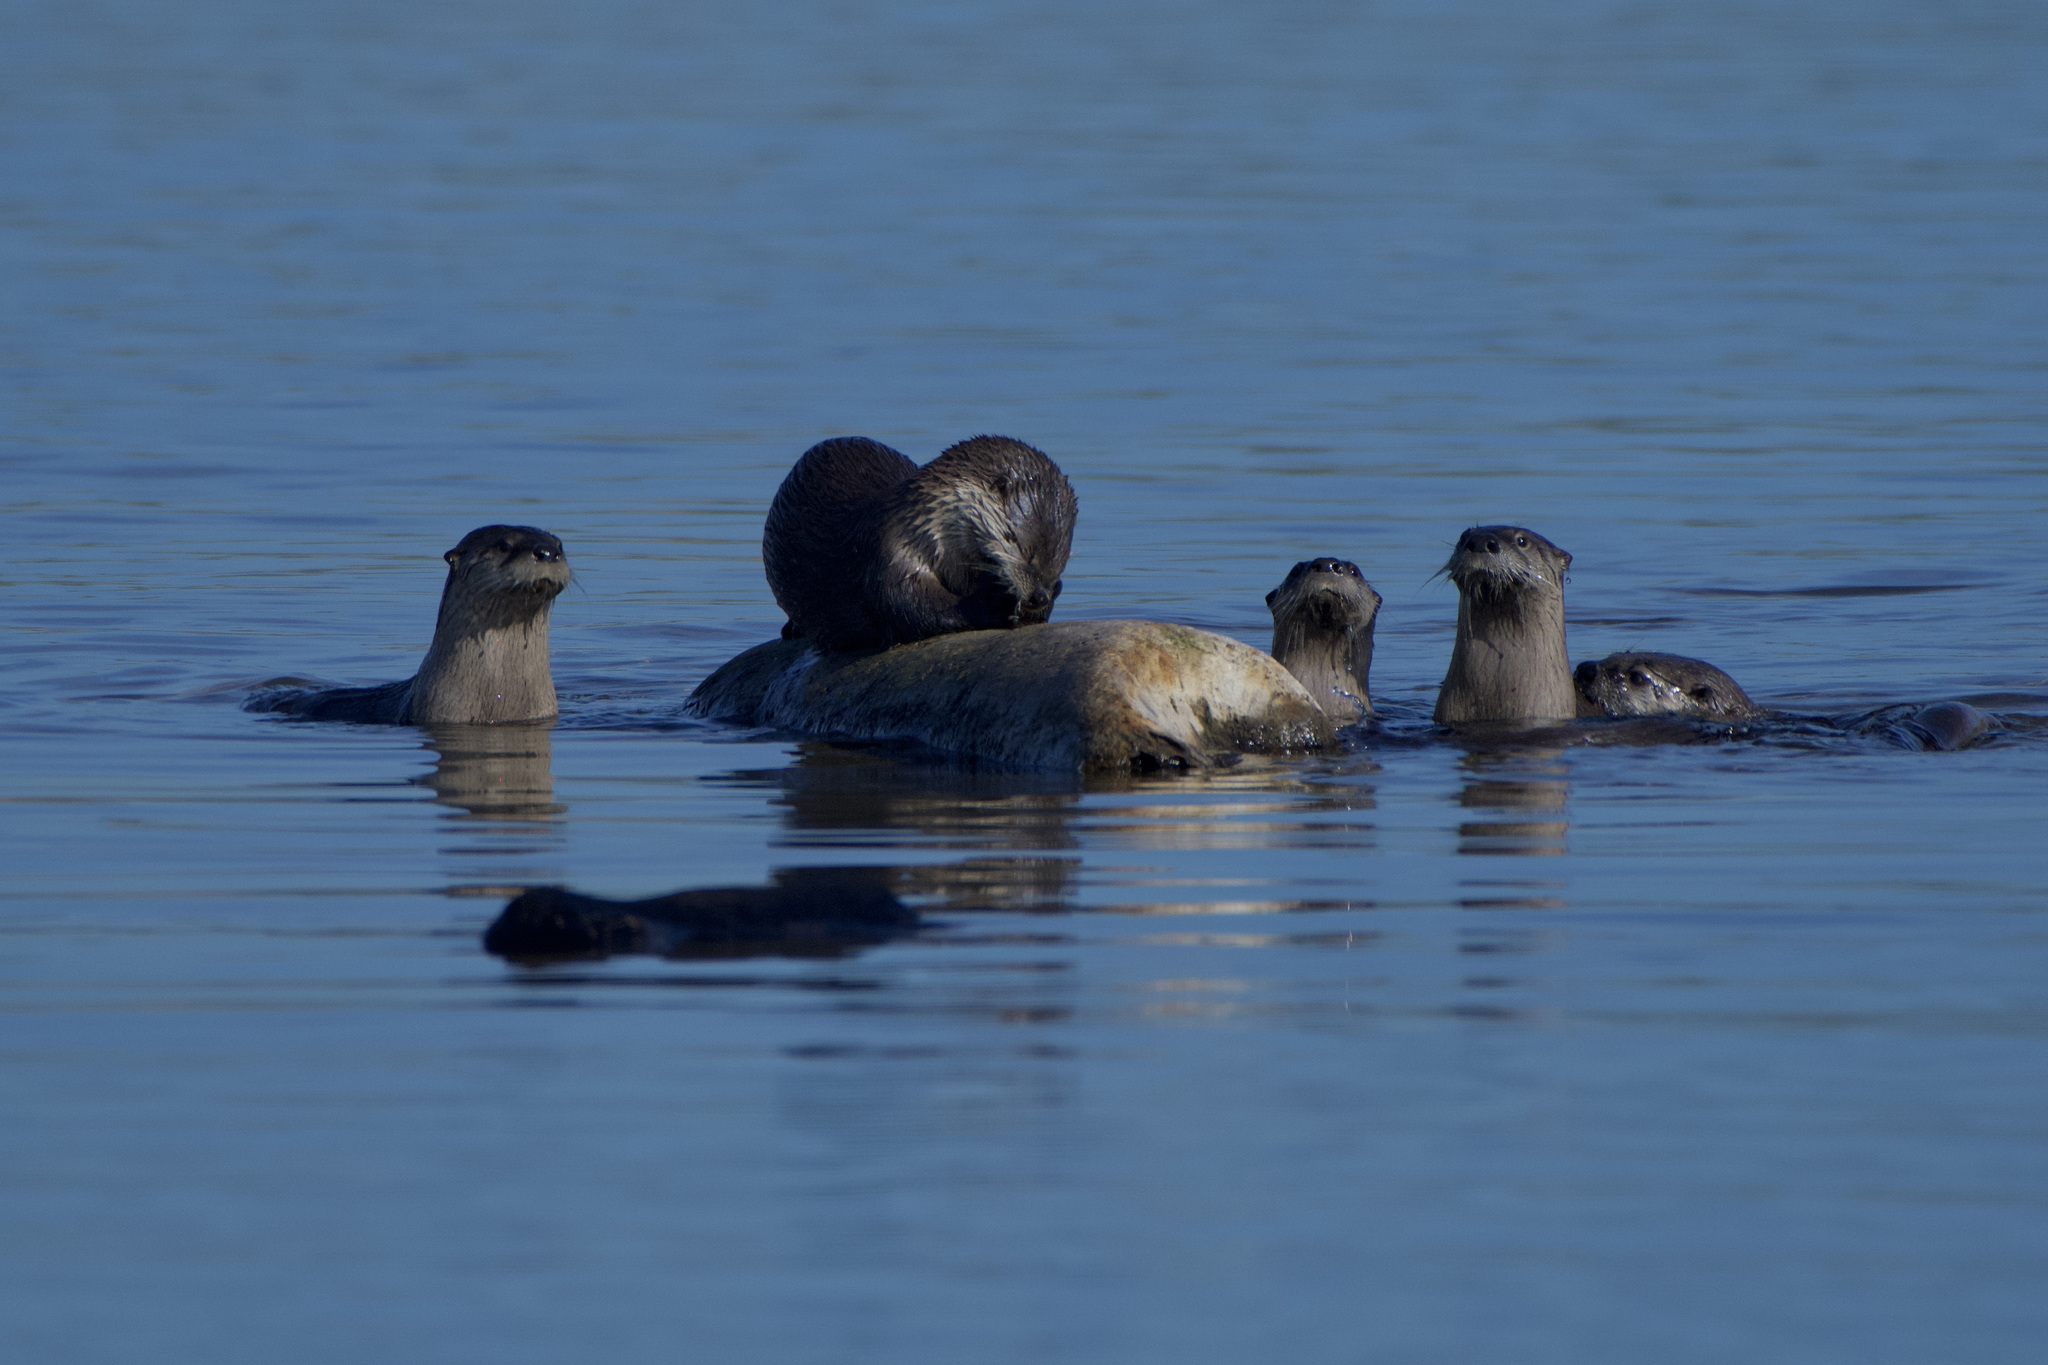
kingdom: Animalia
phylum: Chordata
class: Mammalia
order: Carnivora
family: Mustelidae
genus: Lontra
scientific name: Lontra canadensis
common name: North american river otter
